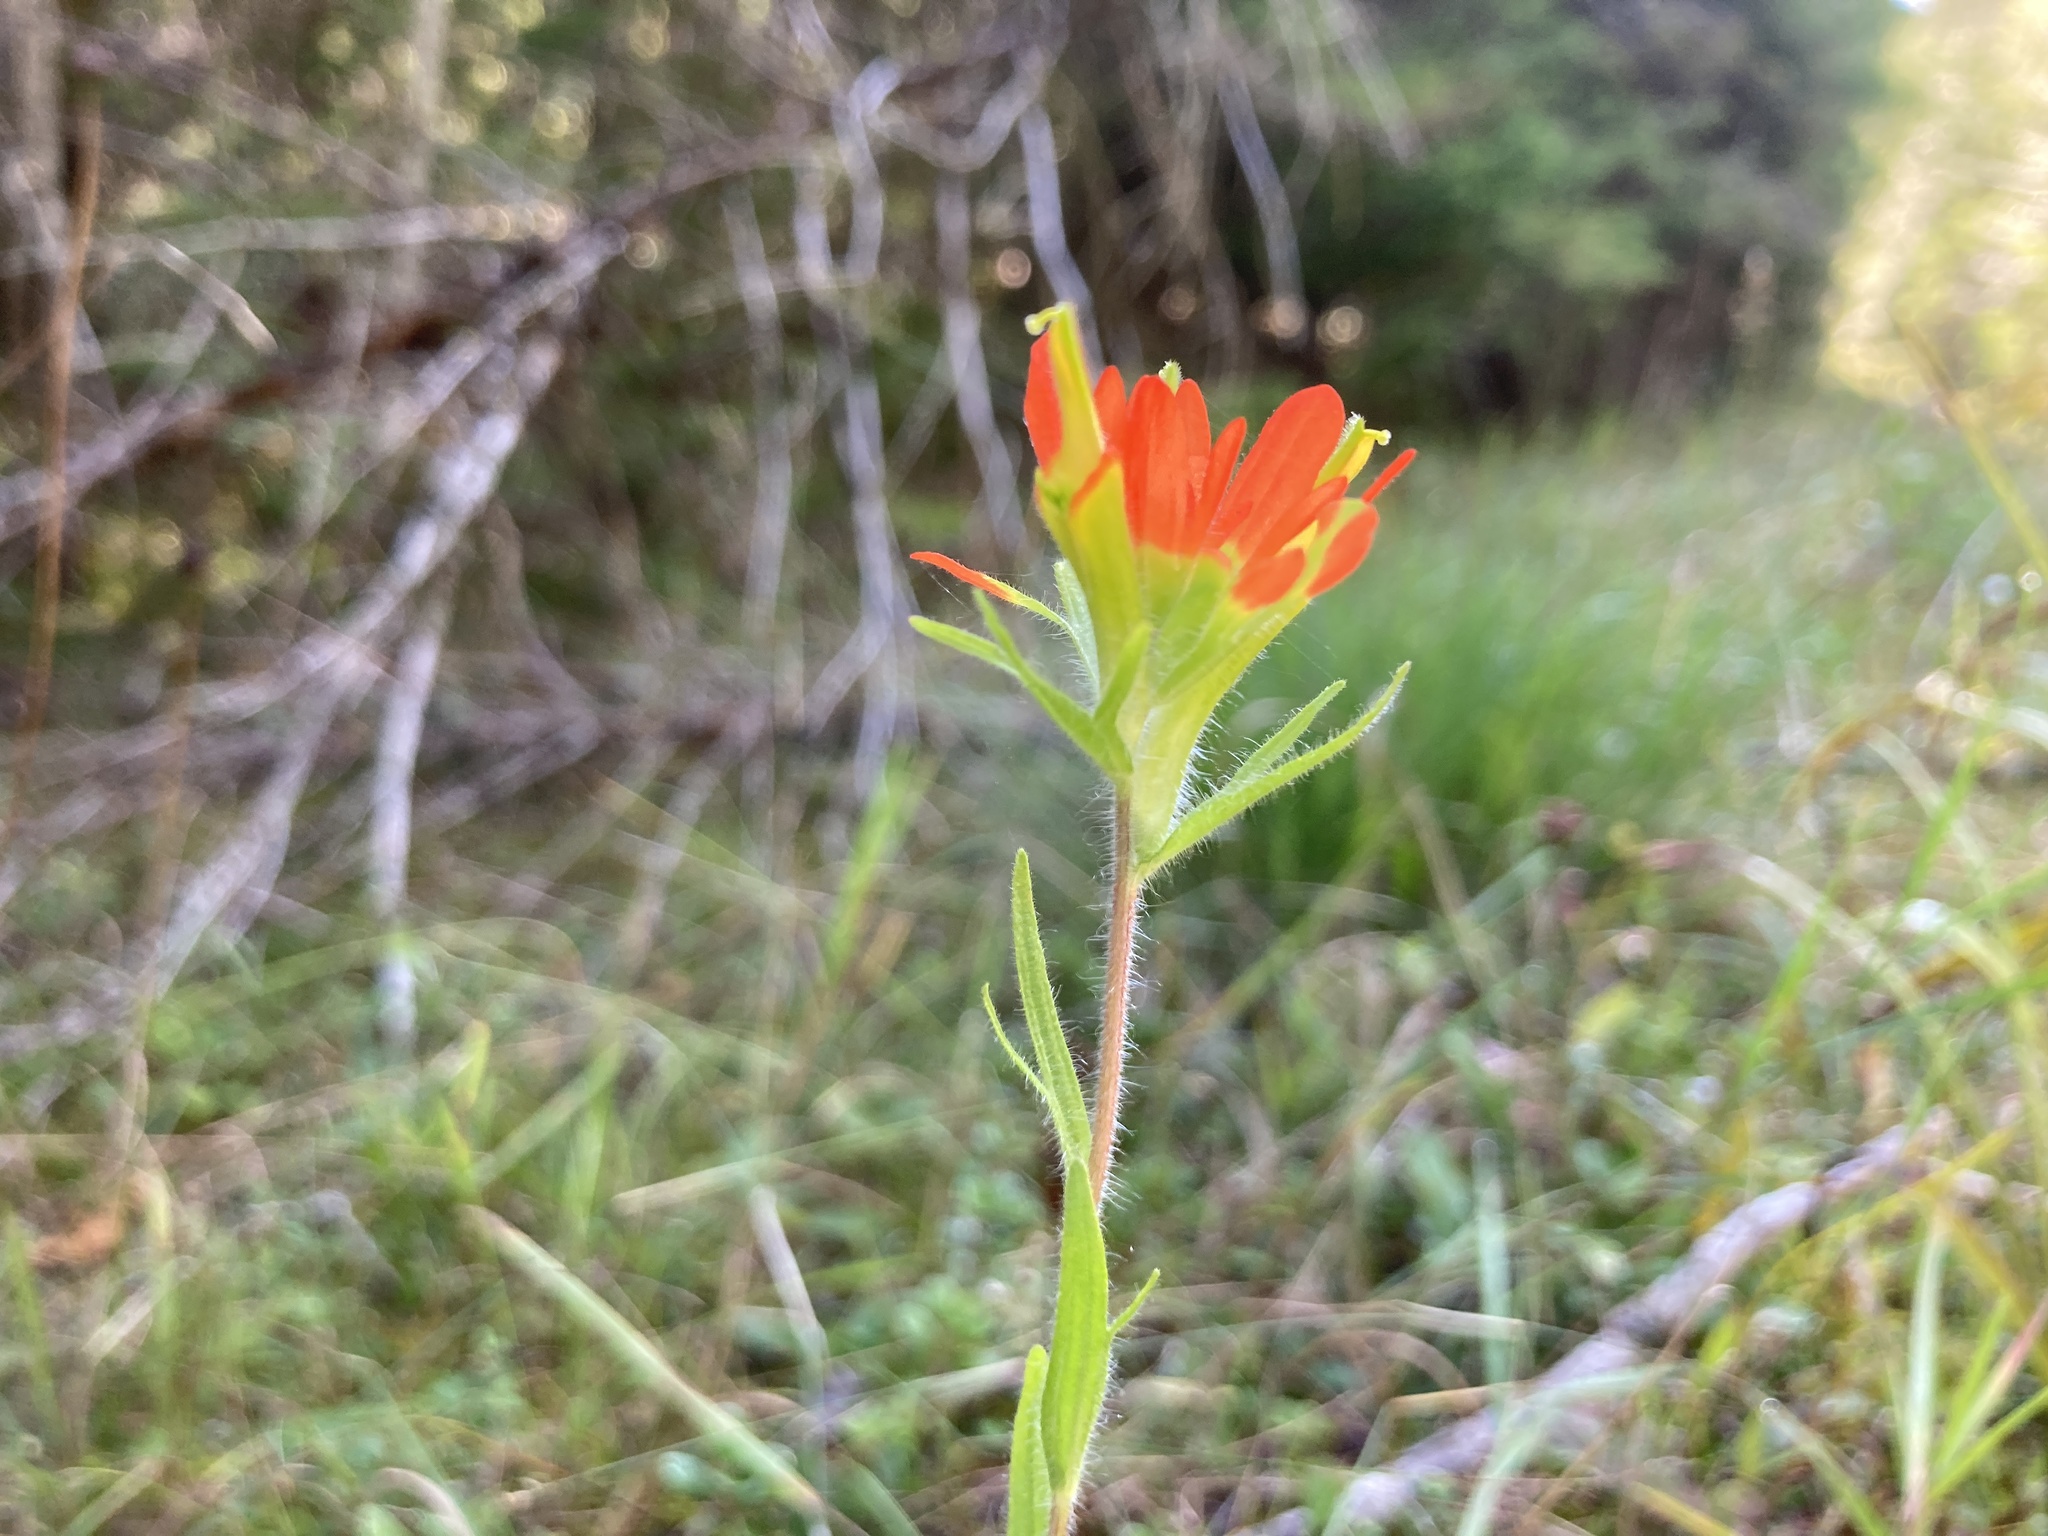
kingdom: Plantae
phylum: Tracheophyta
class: Magnoliopsida
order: Lamiales
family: Orobanchaceae
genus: Castilleja
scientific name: Castilleja coccinea
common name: Scarlet paintbrush
